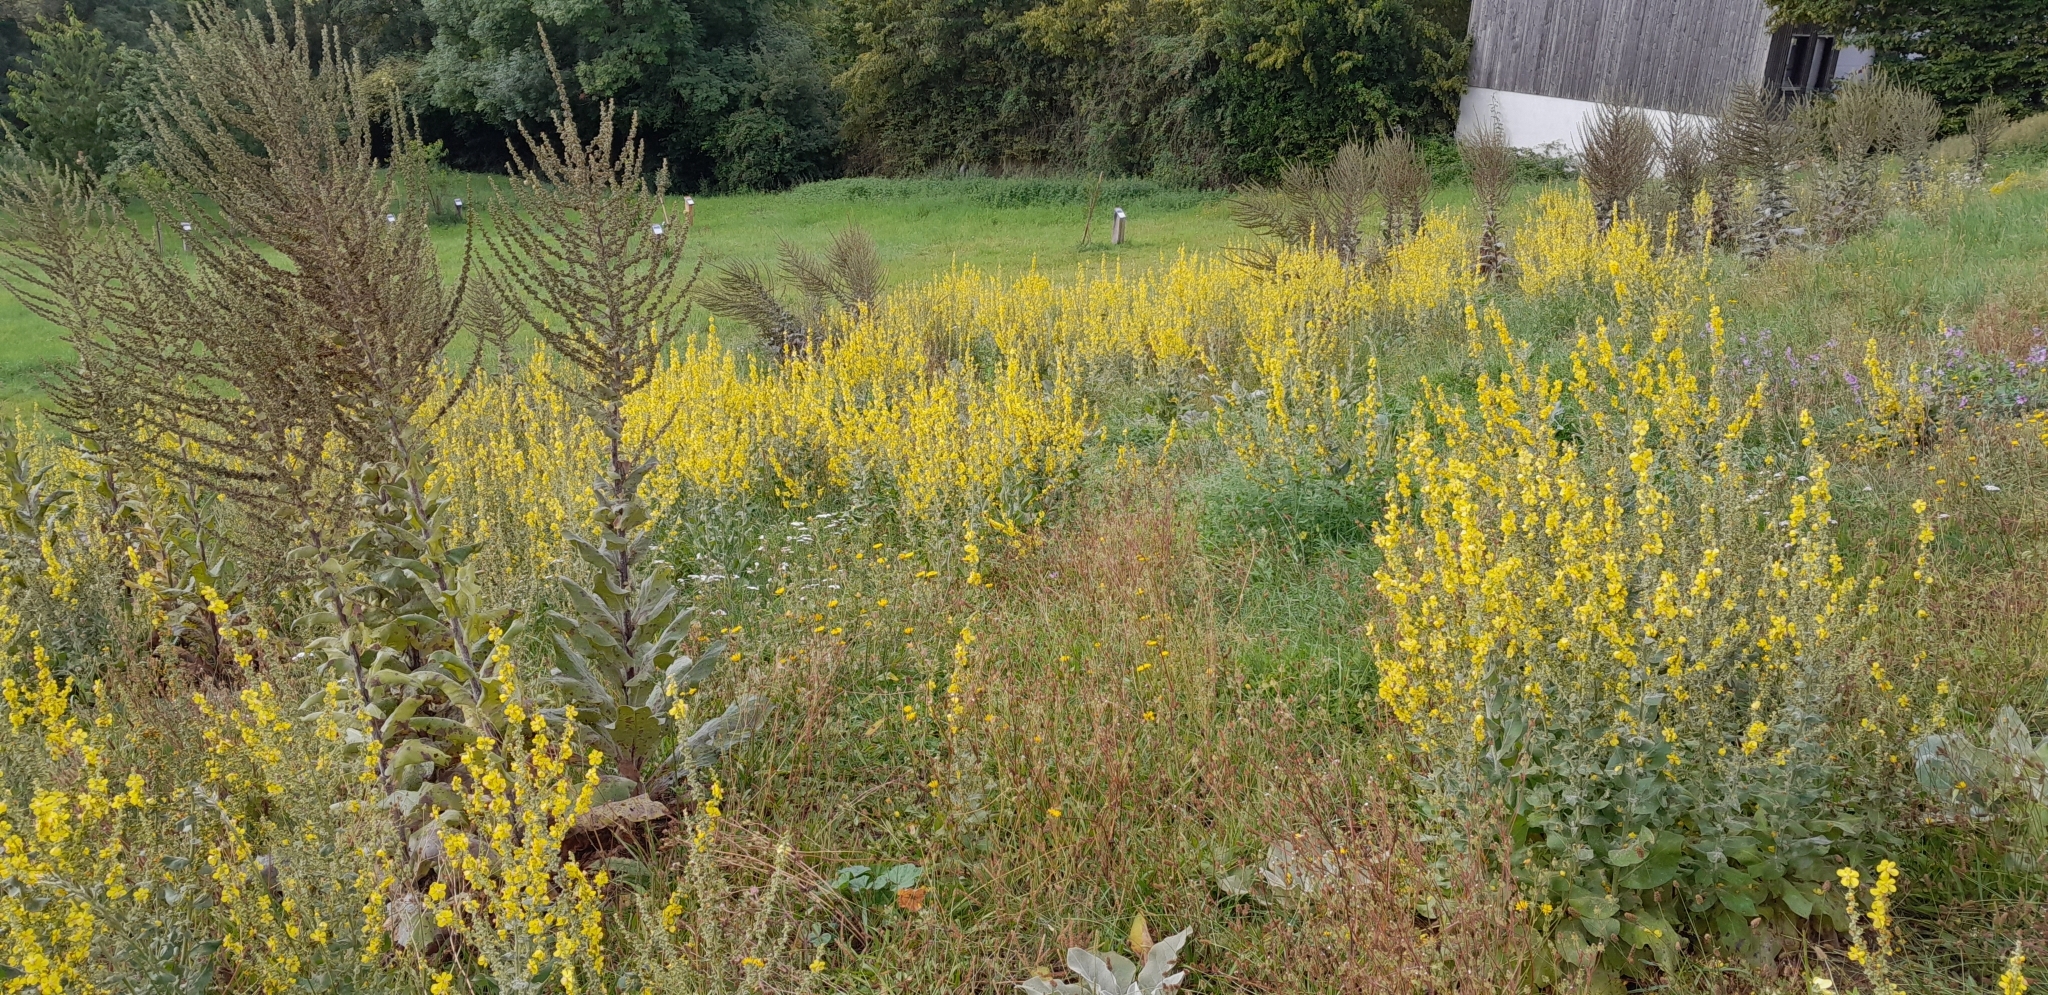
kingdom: Plantae
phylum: Tracheophyta
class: Magnoliopsida
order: Lamiales
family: Scrophulariaceae
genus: Verbascum
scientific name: Verbascum pulverulentum
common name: Broad-leaf mullein
